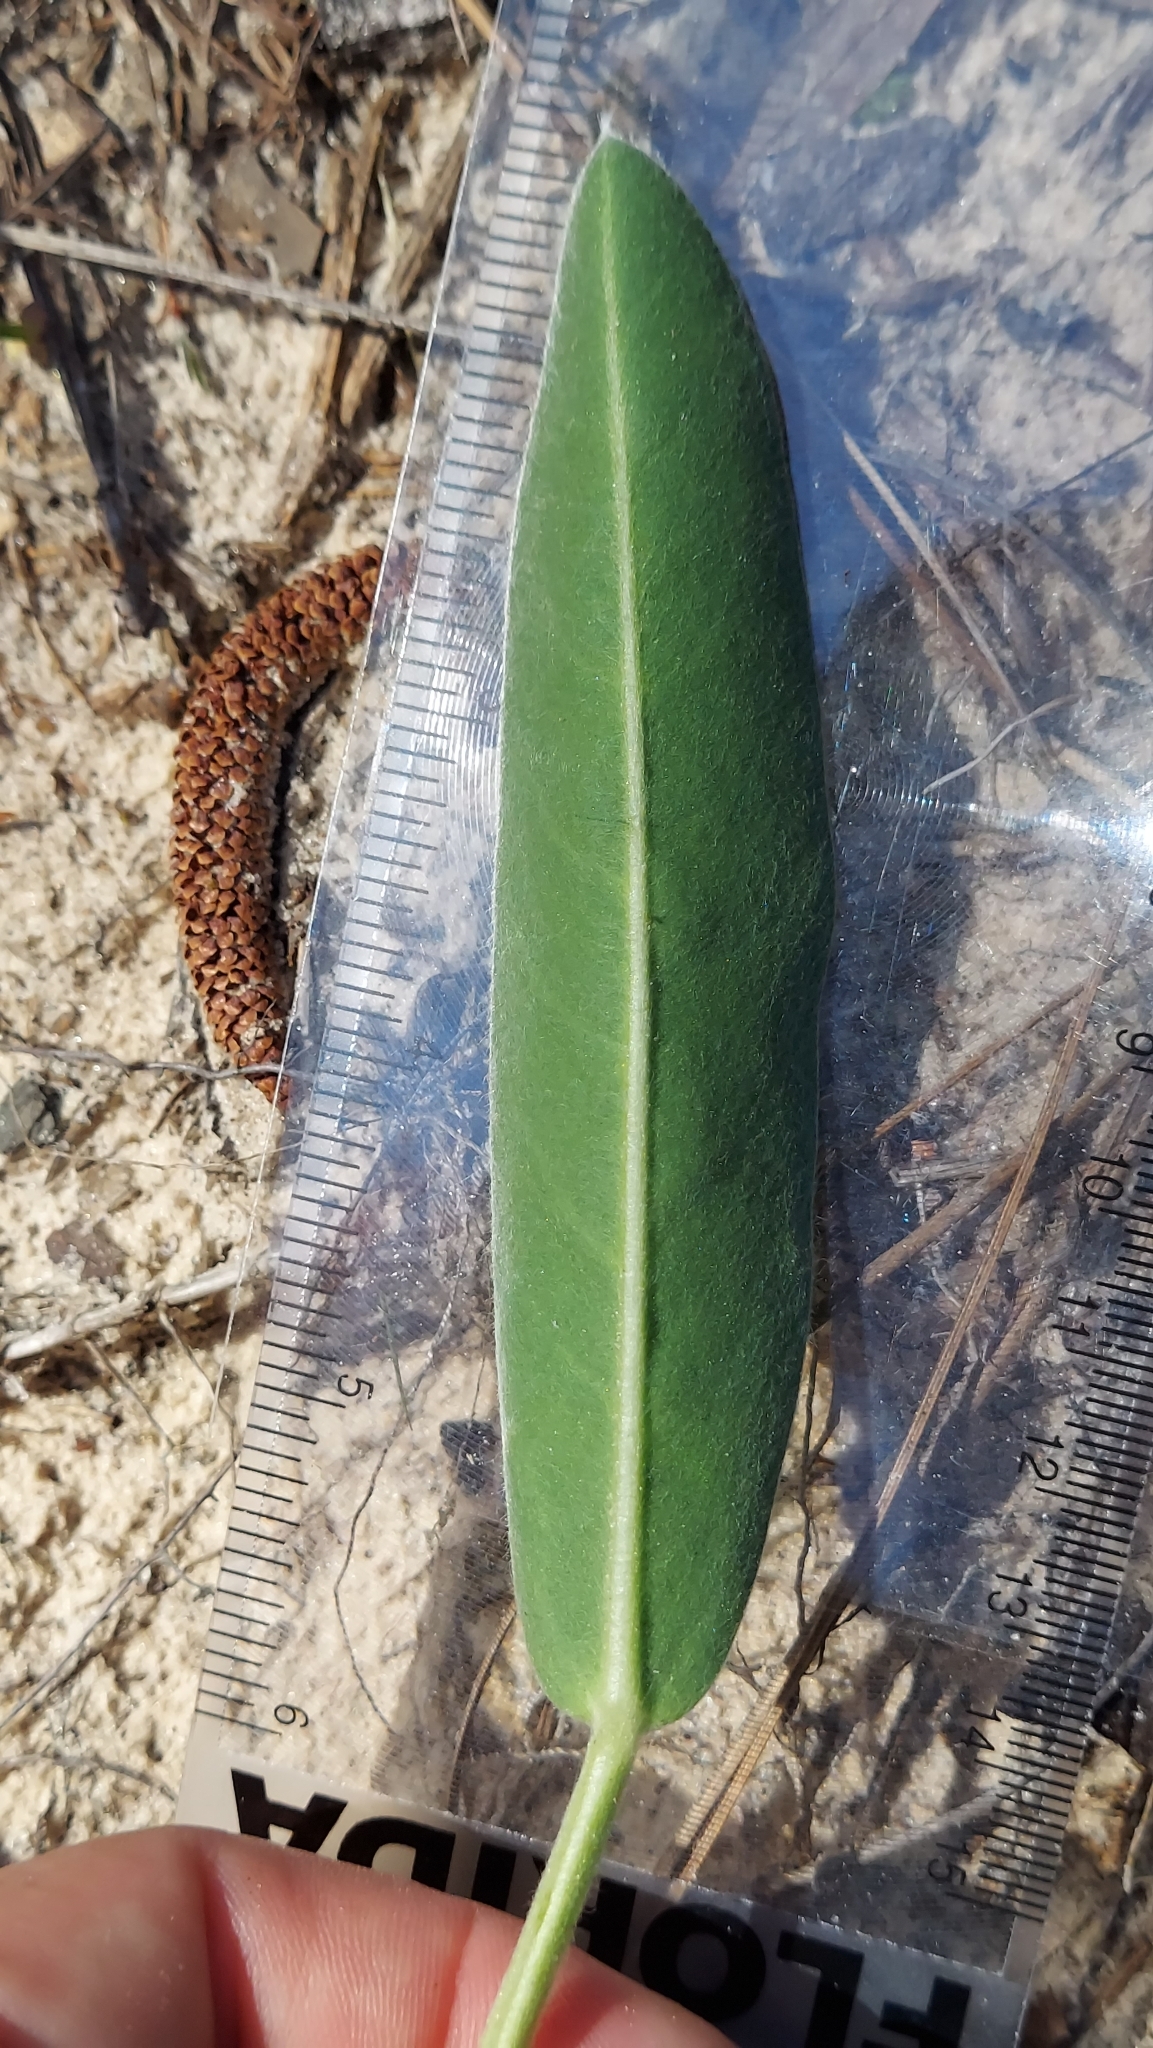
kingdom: Plantae
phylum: Tracheophyta
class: Magnoliopsida
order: Fabales
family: Fabaceae
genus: Lupinus
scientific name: Lupinus
